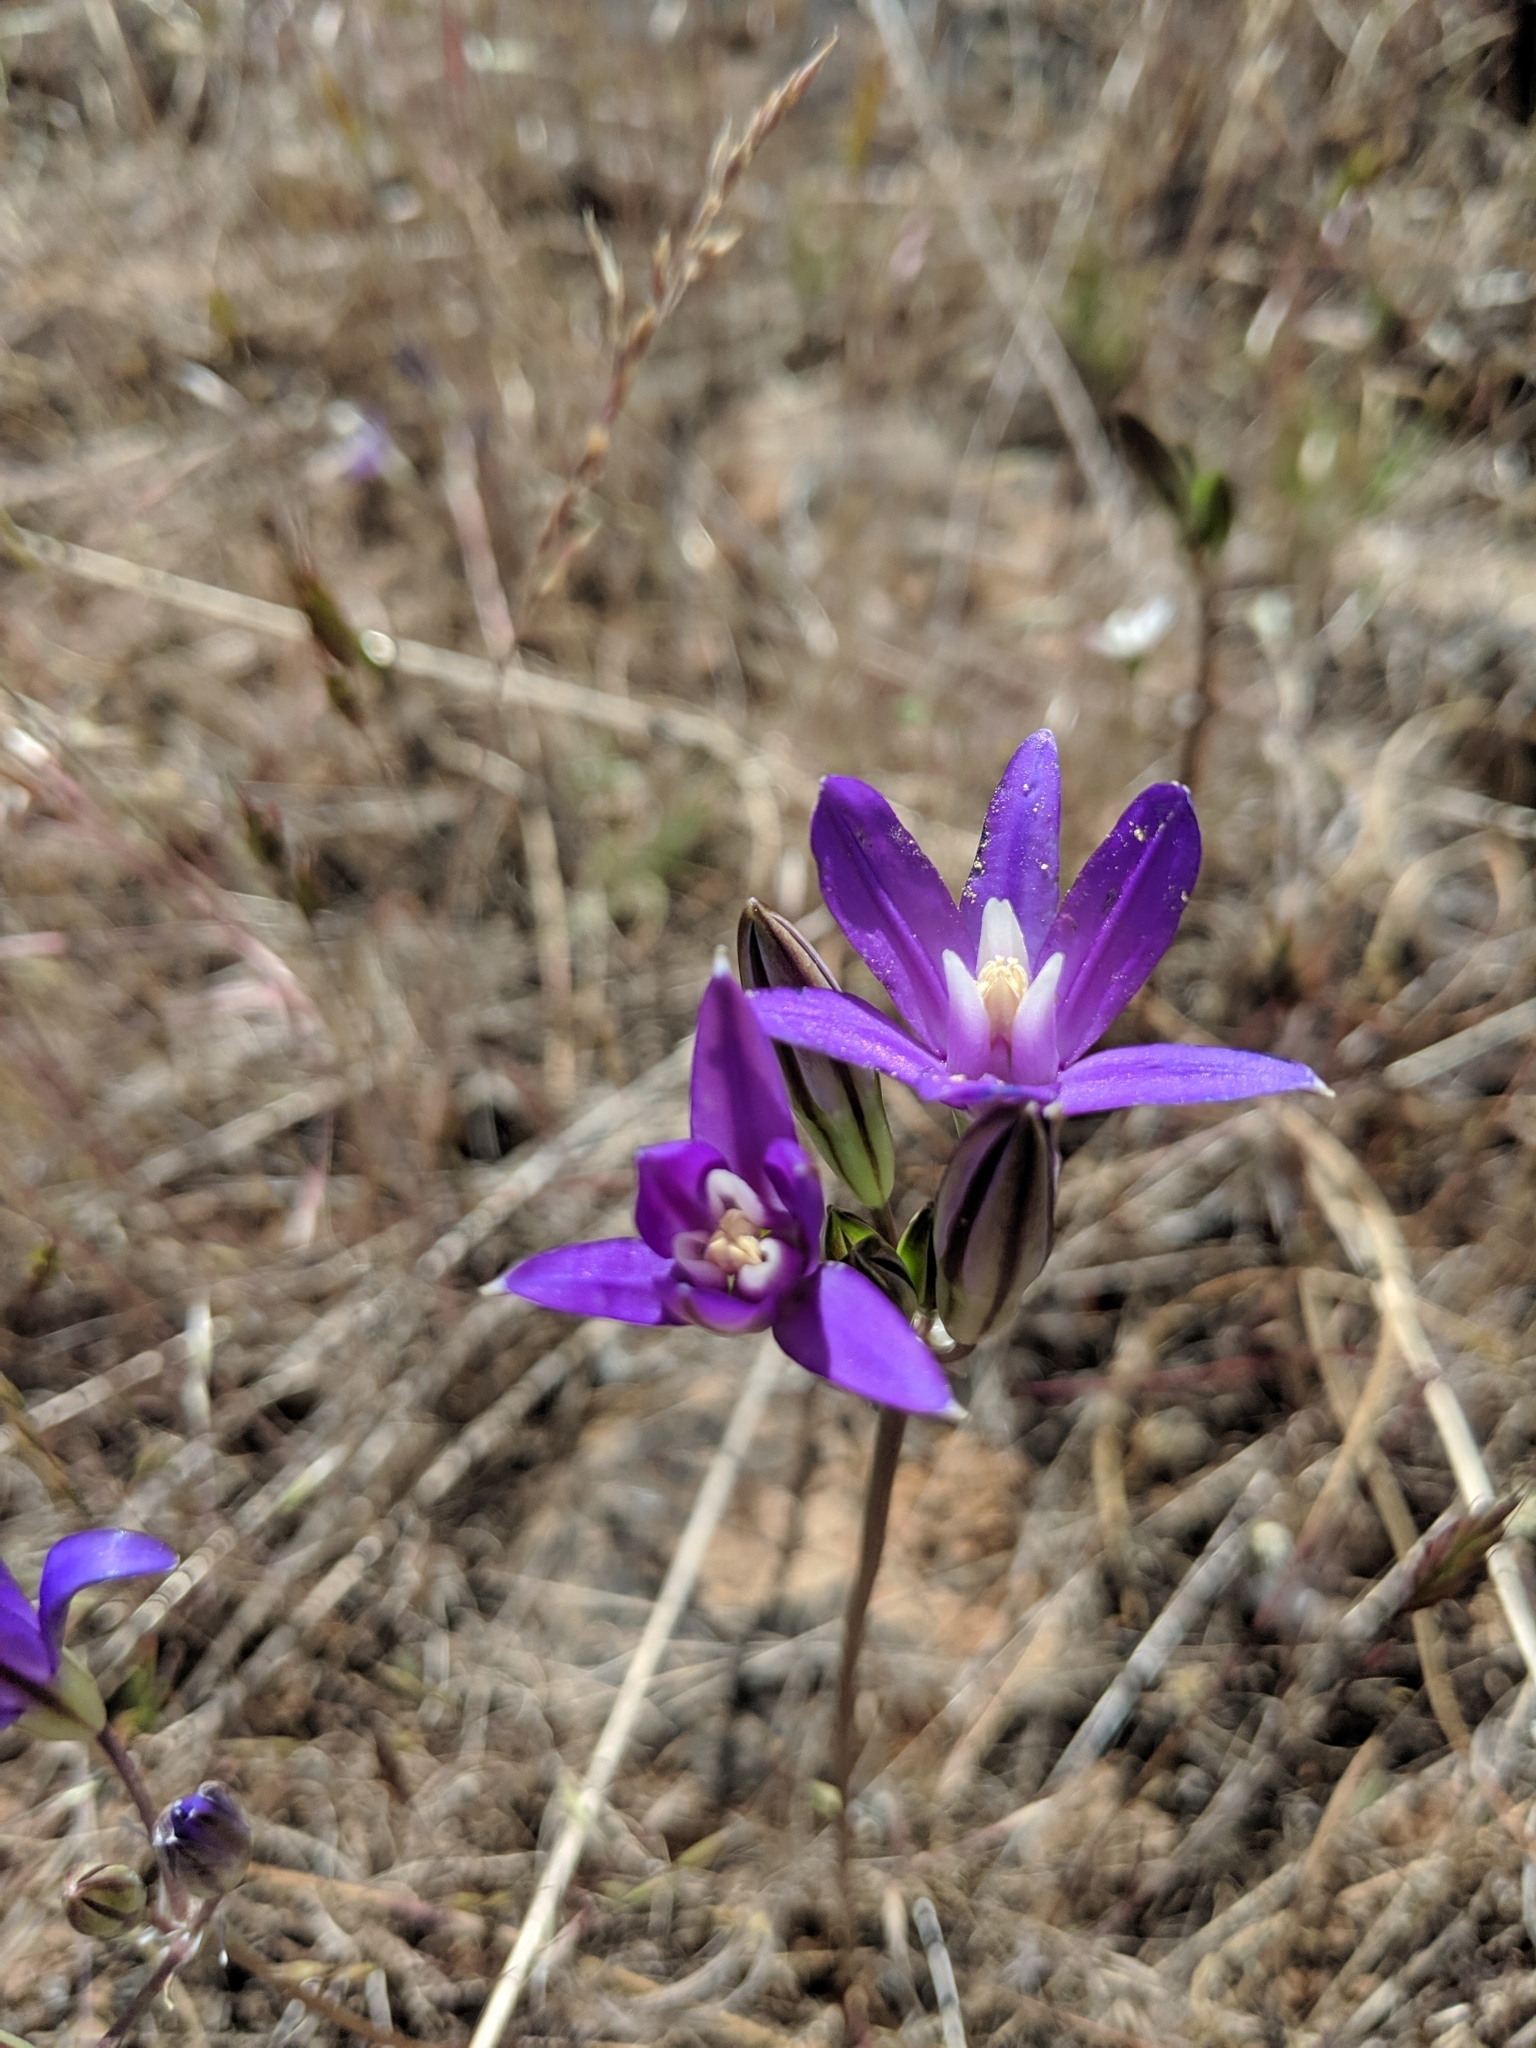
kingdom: Plantae
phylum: Tracheophyta
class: Liliopsida
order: Asparagales
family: Asparagaceae
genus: Brodiaea
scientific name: Brodiaea coronaria
